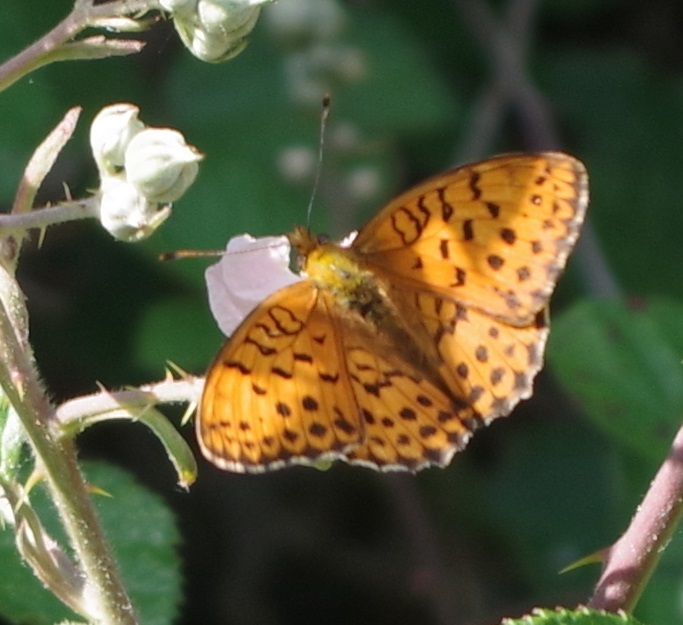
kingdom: Animalia
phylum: Arthropoda
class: Insecta
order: Lepidoptera
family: Nymphalidae
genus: Brenthis
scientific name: Brenthis daphne
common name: Marbled fritillary
